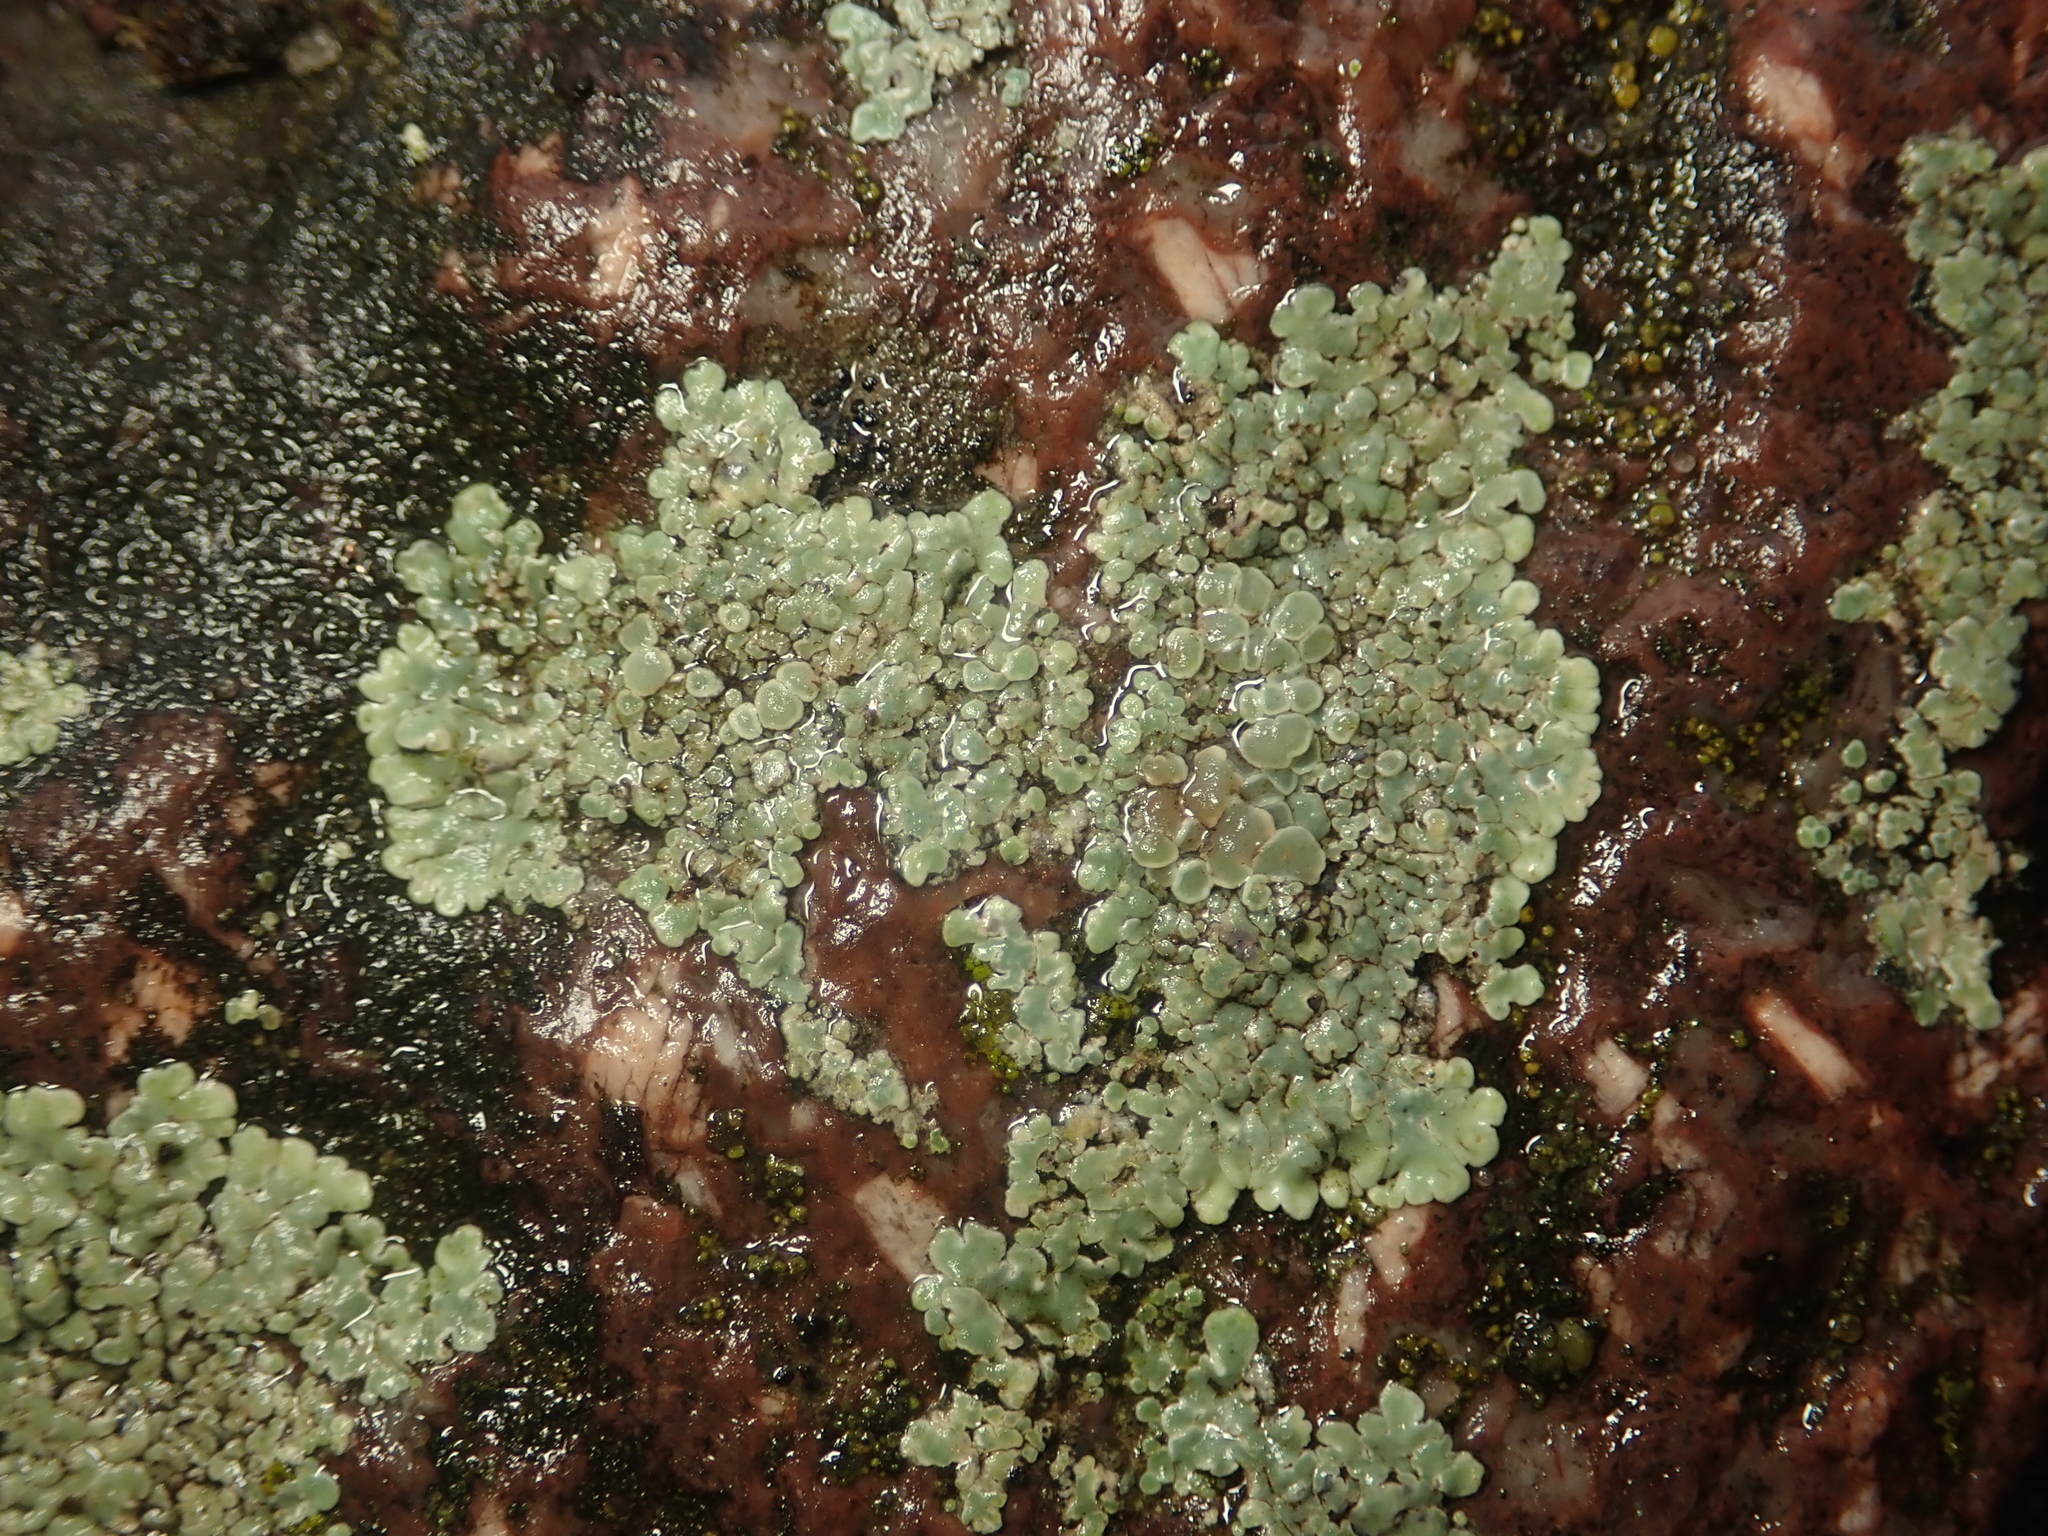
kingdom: Fungi
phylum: Ascomycota
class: Lecanoromycetes
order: Lecanorales
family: Lecanoraceae
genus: Protoparmeliopsis
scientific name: Protoparmeliopsis muralis
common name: Stonewall rim lichen
